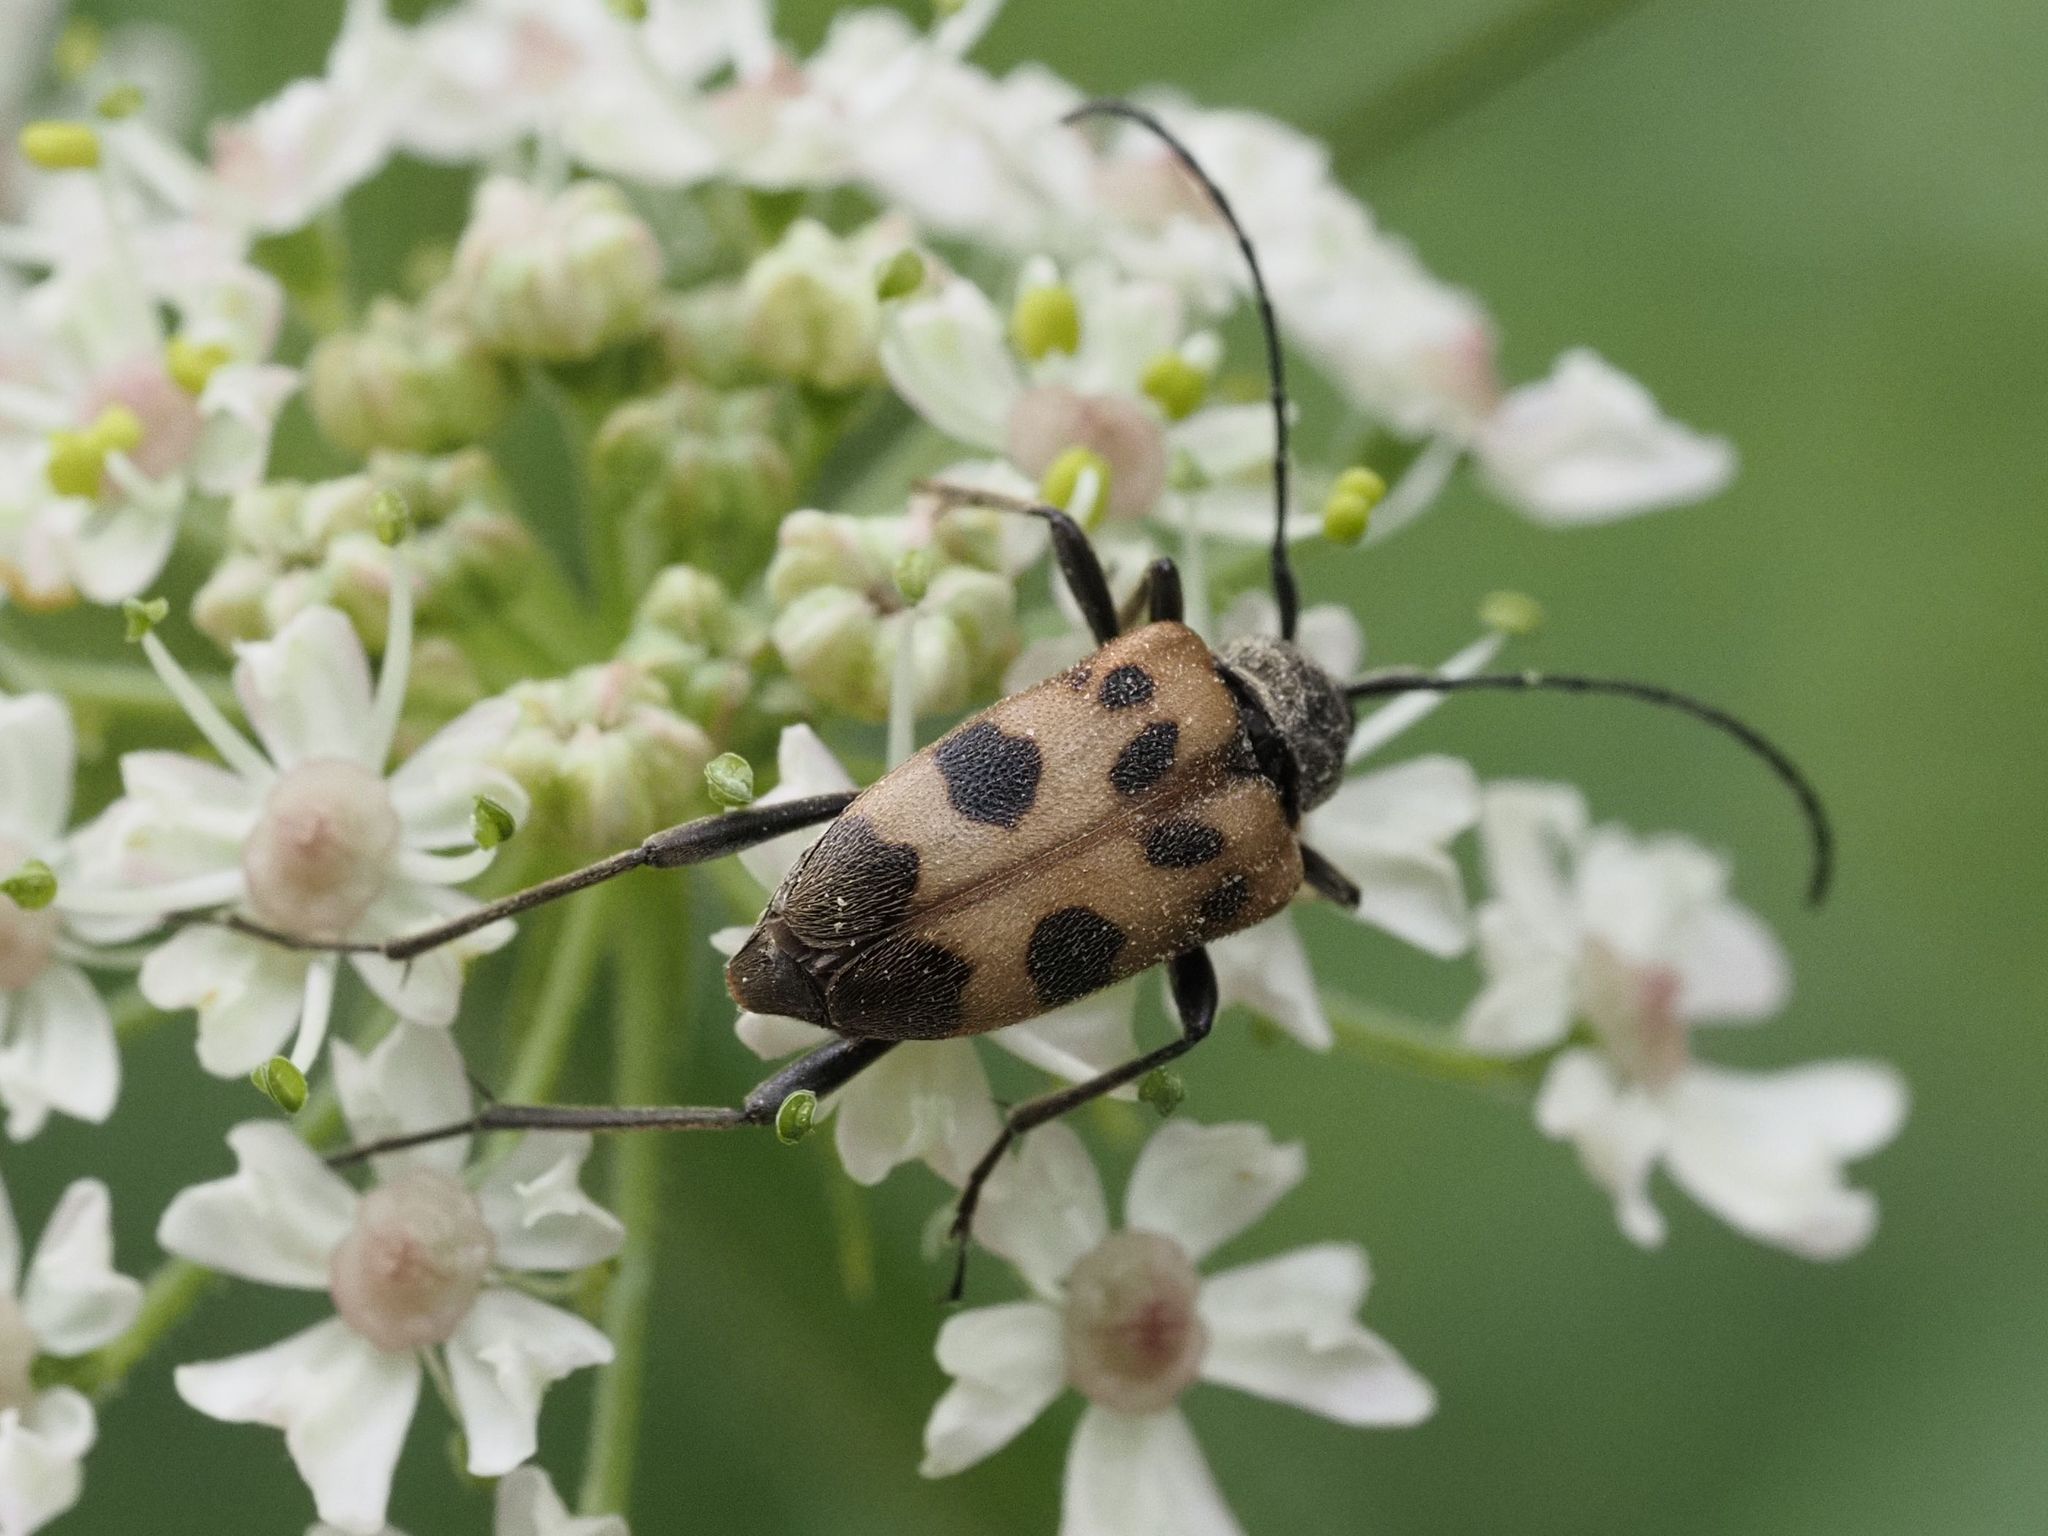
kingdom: Animalia
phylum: Arthropoda
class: Insecta
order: Coleoptera
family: Cerambycidae
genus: Pachytodes
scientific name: Pachytodes cerambyciformis
